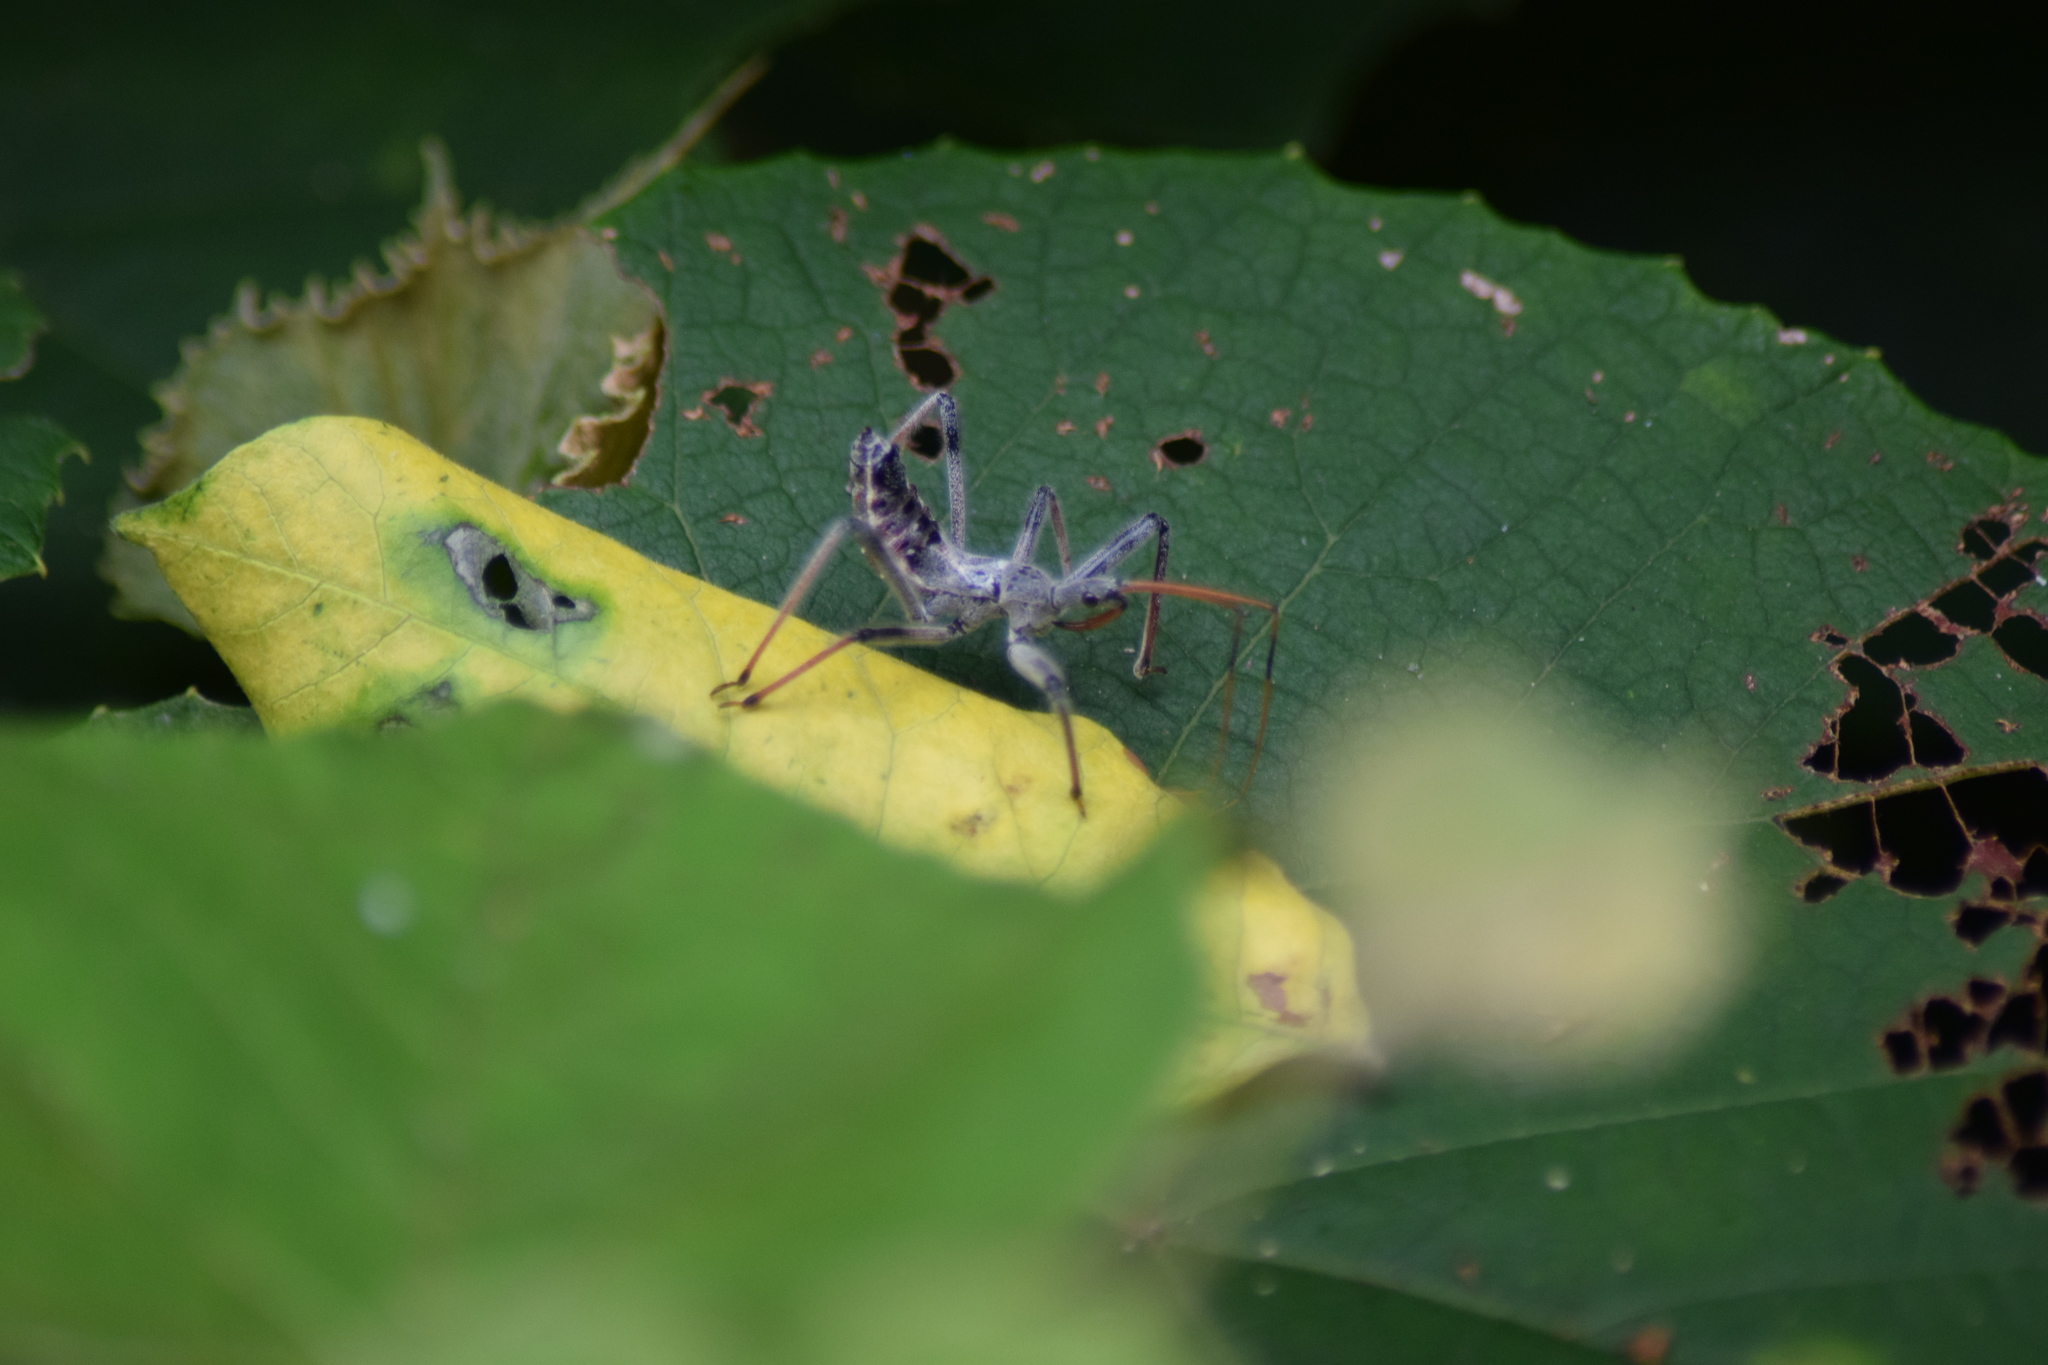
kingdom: Animalia
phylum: Arthropoda
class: Insecta
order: Hemiptera
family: Reduviidae
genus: Arilus
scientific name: Arilus cristatus
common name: North american wheel bug
